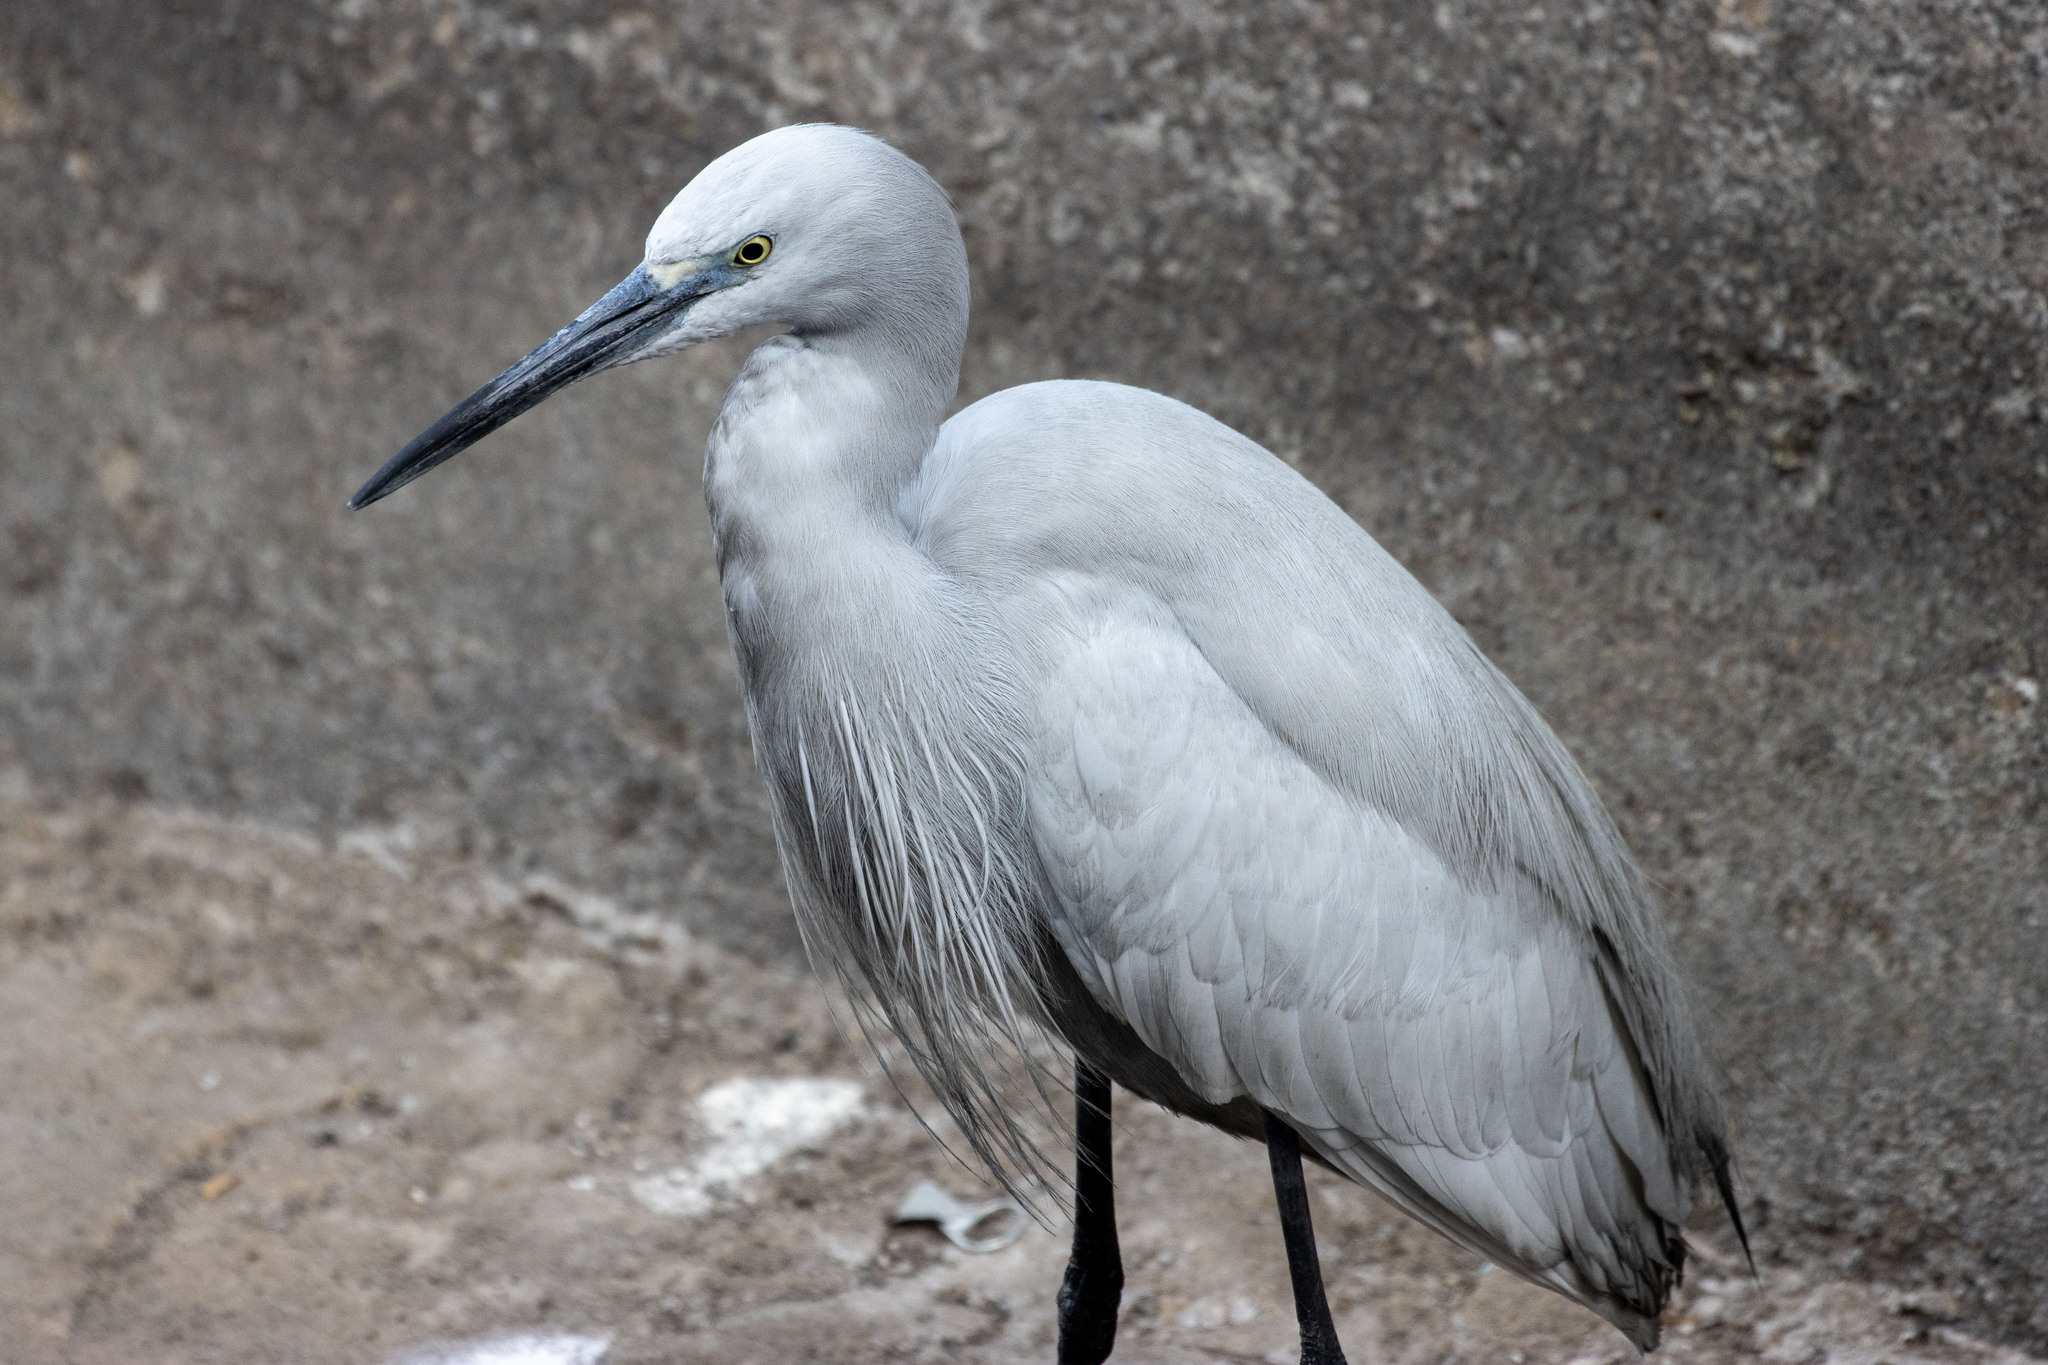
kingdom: Animalia
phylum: Chordata
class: Aves
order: Pelecaniformes
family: Ardeidae
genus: Egretta
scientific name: Egretta garzetta
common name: Little egret
